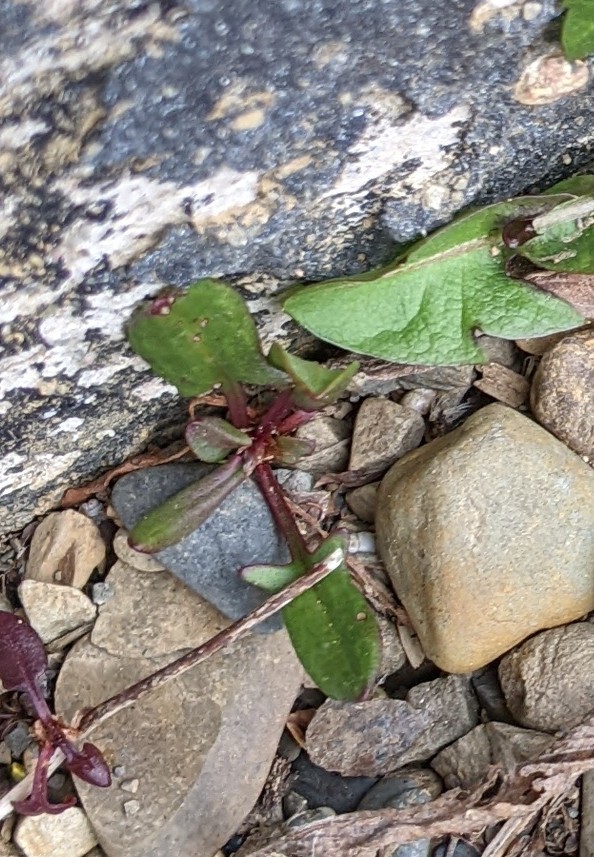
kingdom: Plantae
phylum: Tracheophyta
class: Magnoliopsida
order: Caryophyllales
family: Polygonaceae
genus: Rumex
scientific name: Rumex acetosella
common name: Common sheep sorrel
